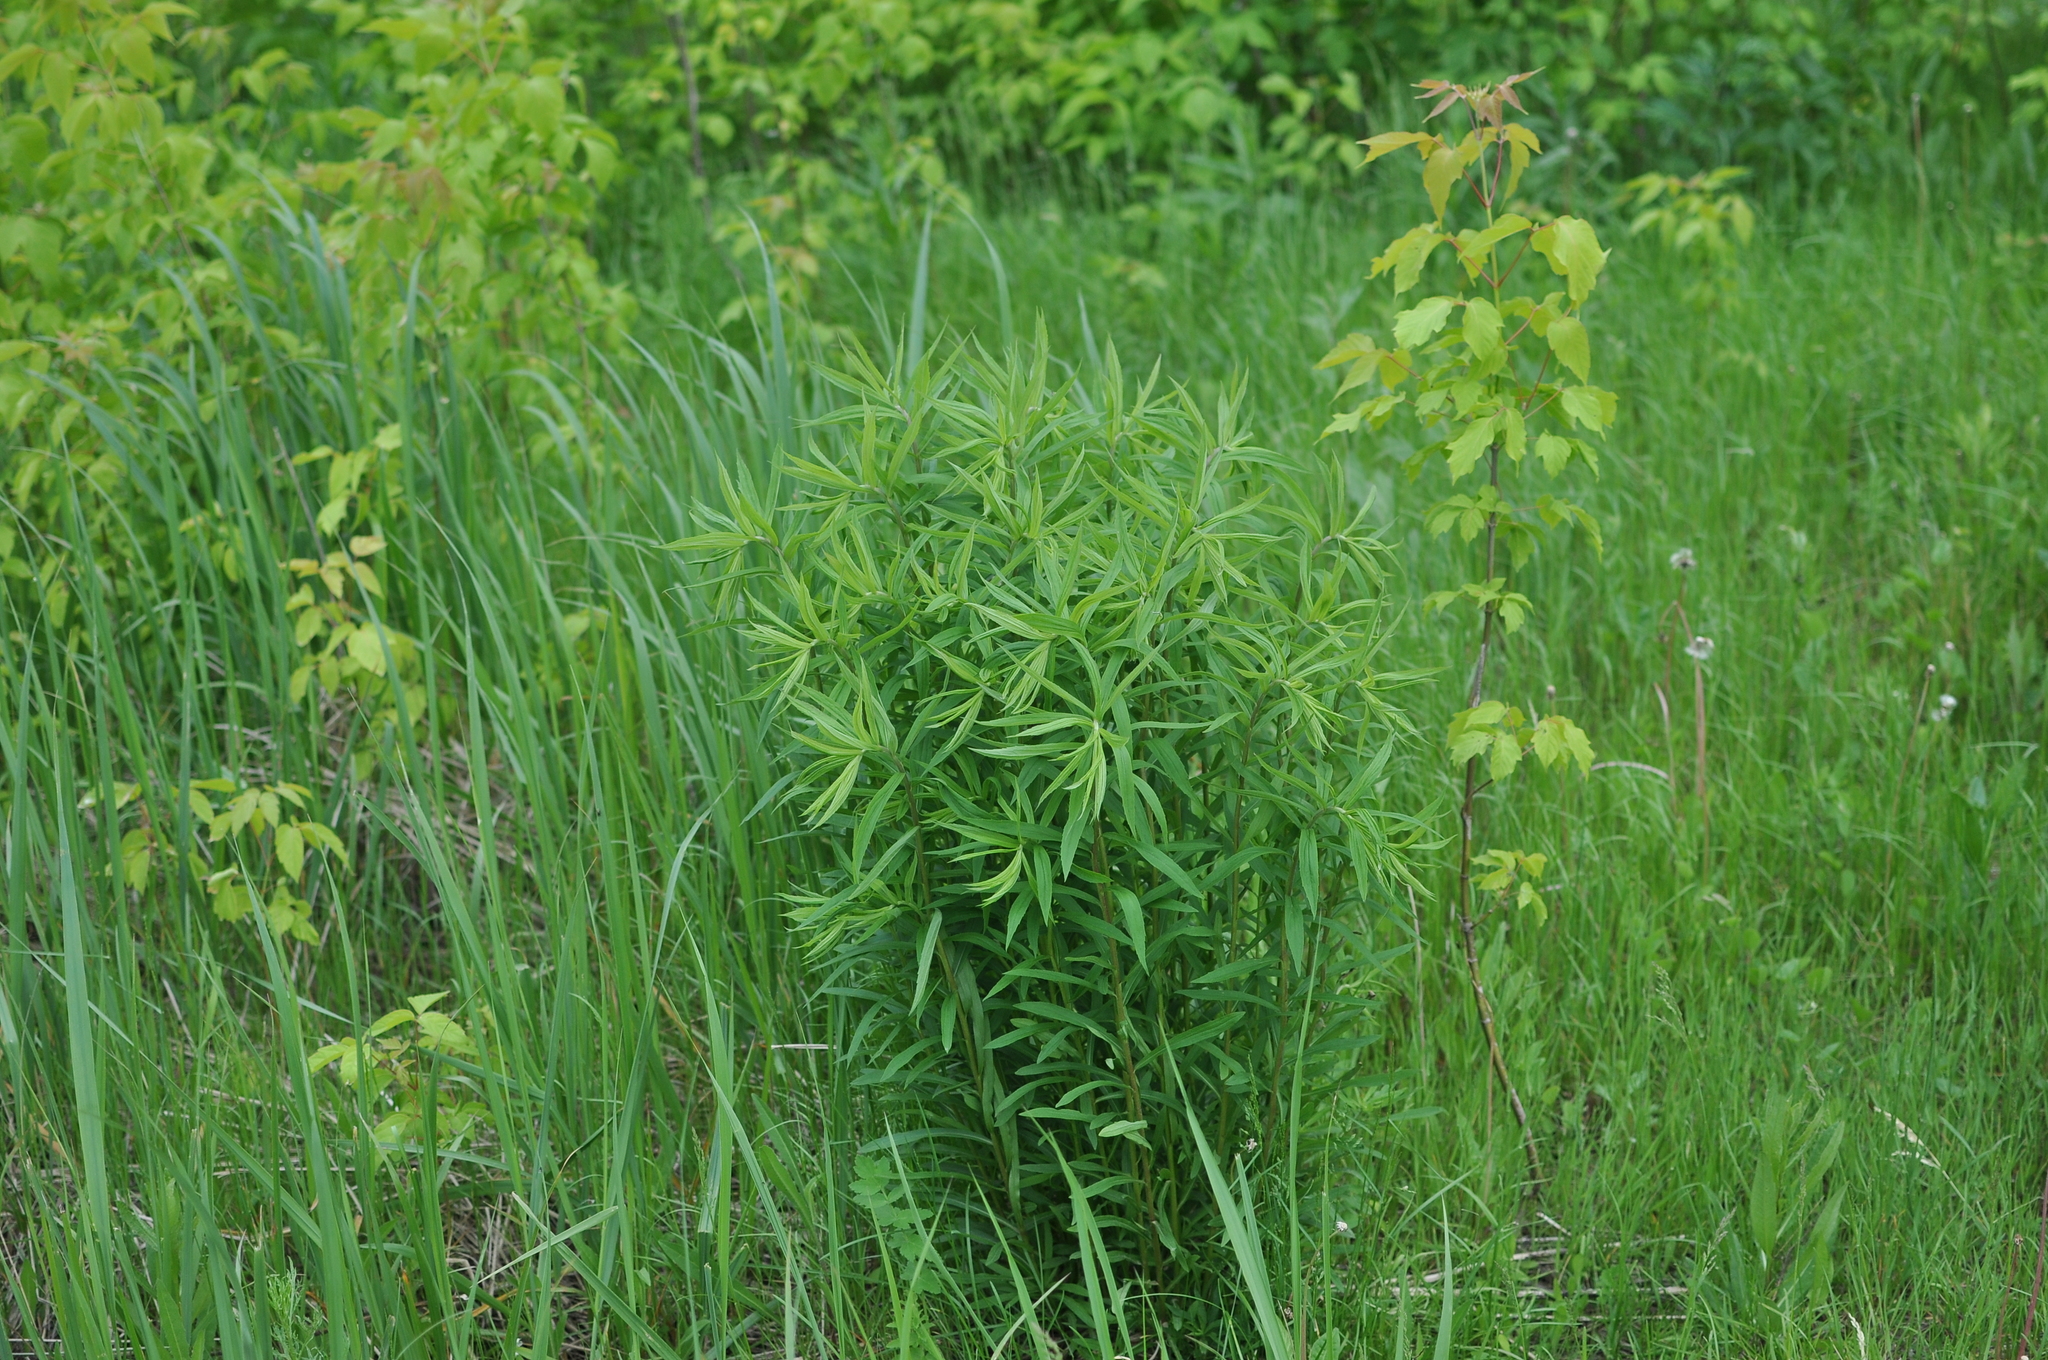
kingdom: Plantae
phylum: Tracheophyta
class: Magnoliopsida
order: Asterales
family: Asteraceae
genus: Solidago
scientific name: Solidago canadensis
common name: Canada goldenrod
